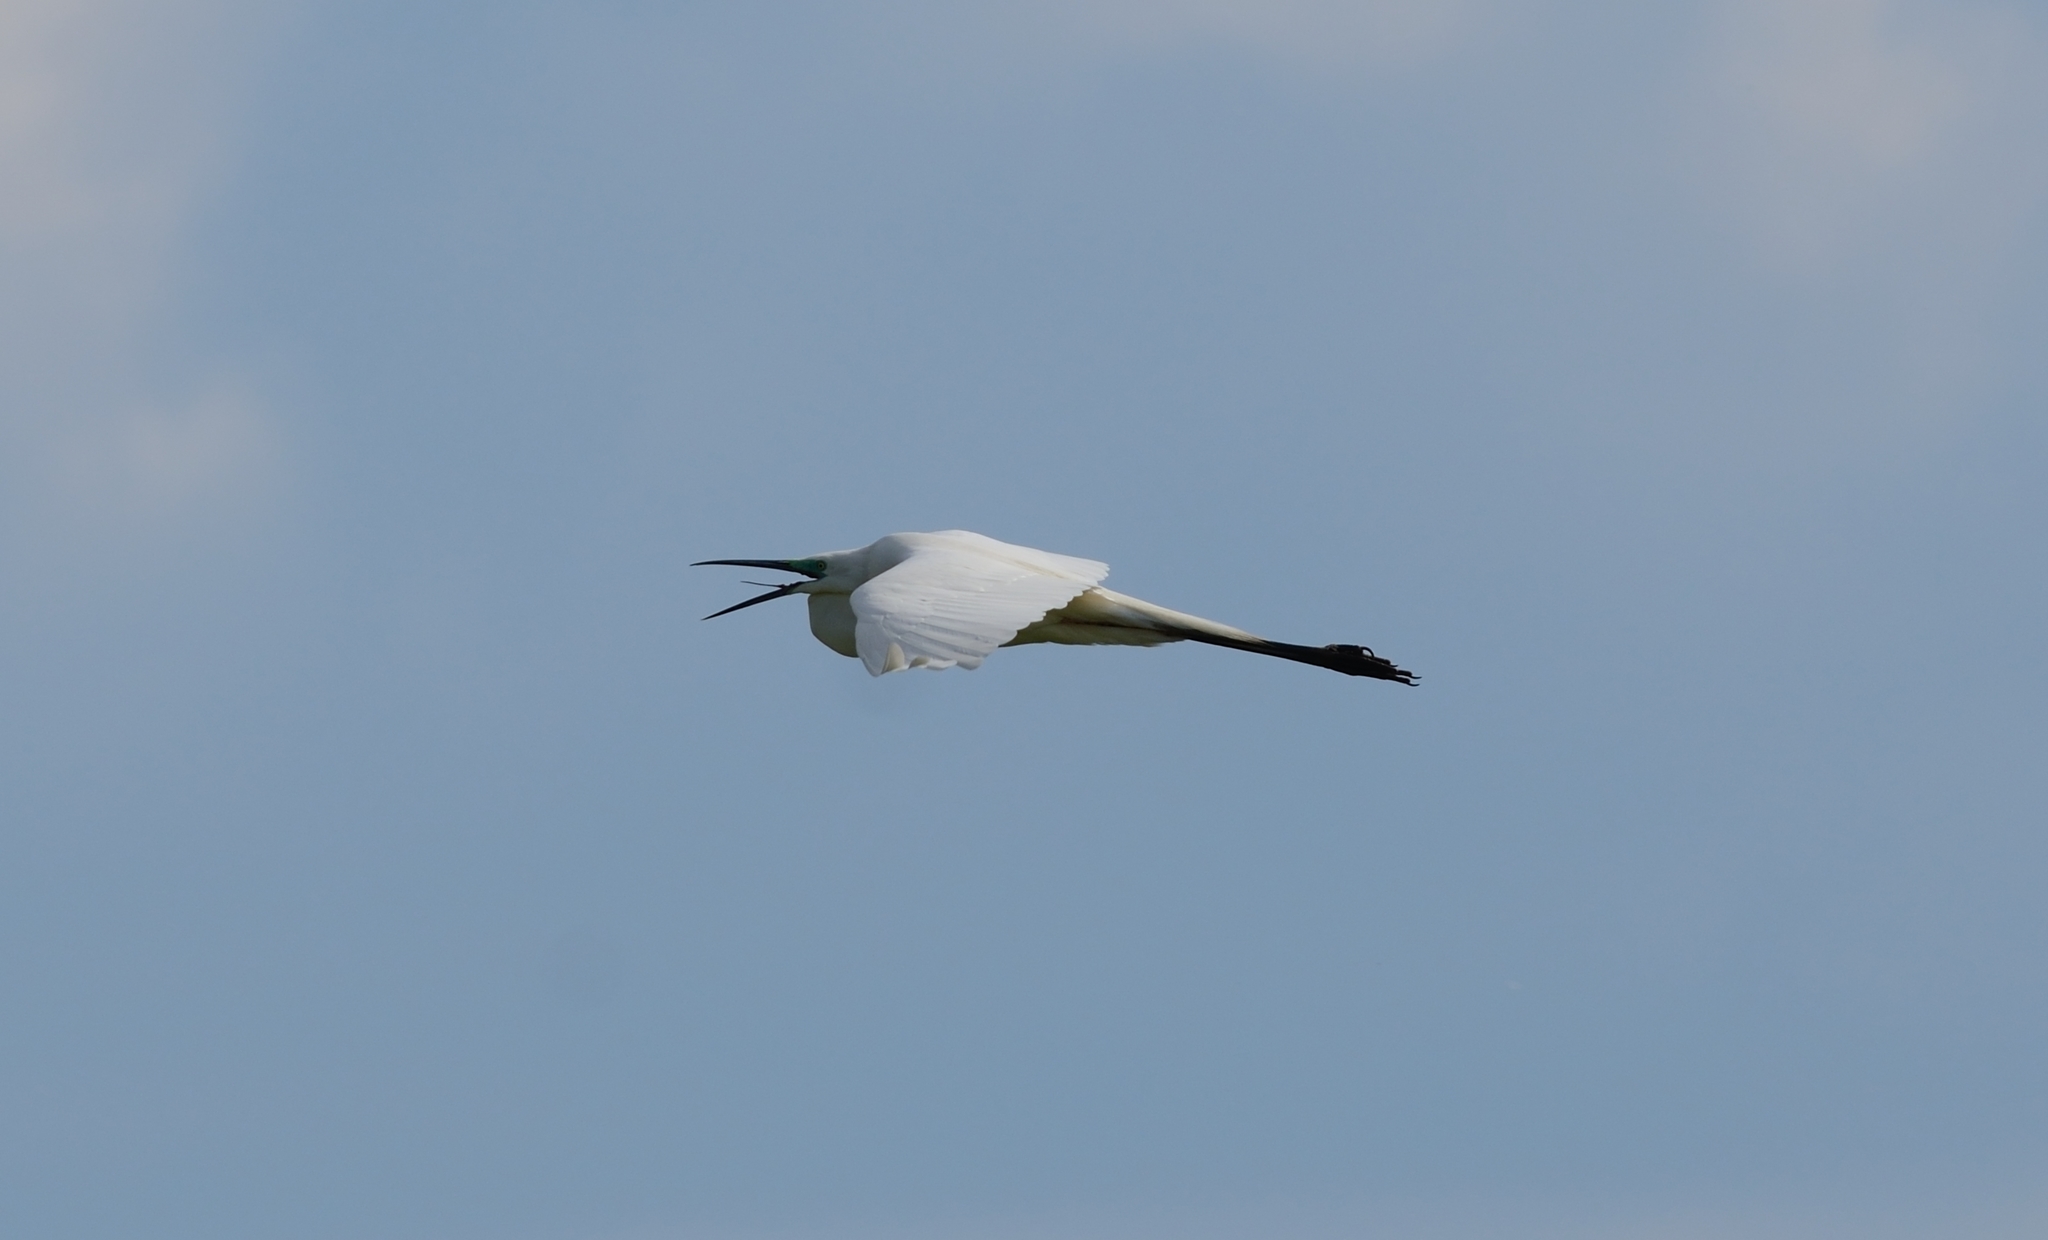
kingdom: Animalia
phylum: Chordata
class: Aves
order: Pelecaniformes
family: Ardeidae
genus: Ardea
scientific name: Ardea alba
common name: Great egret
